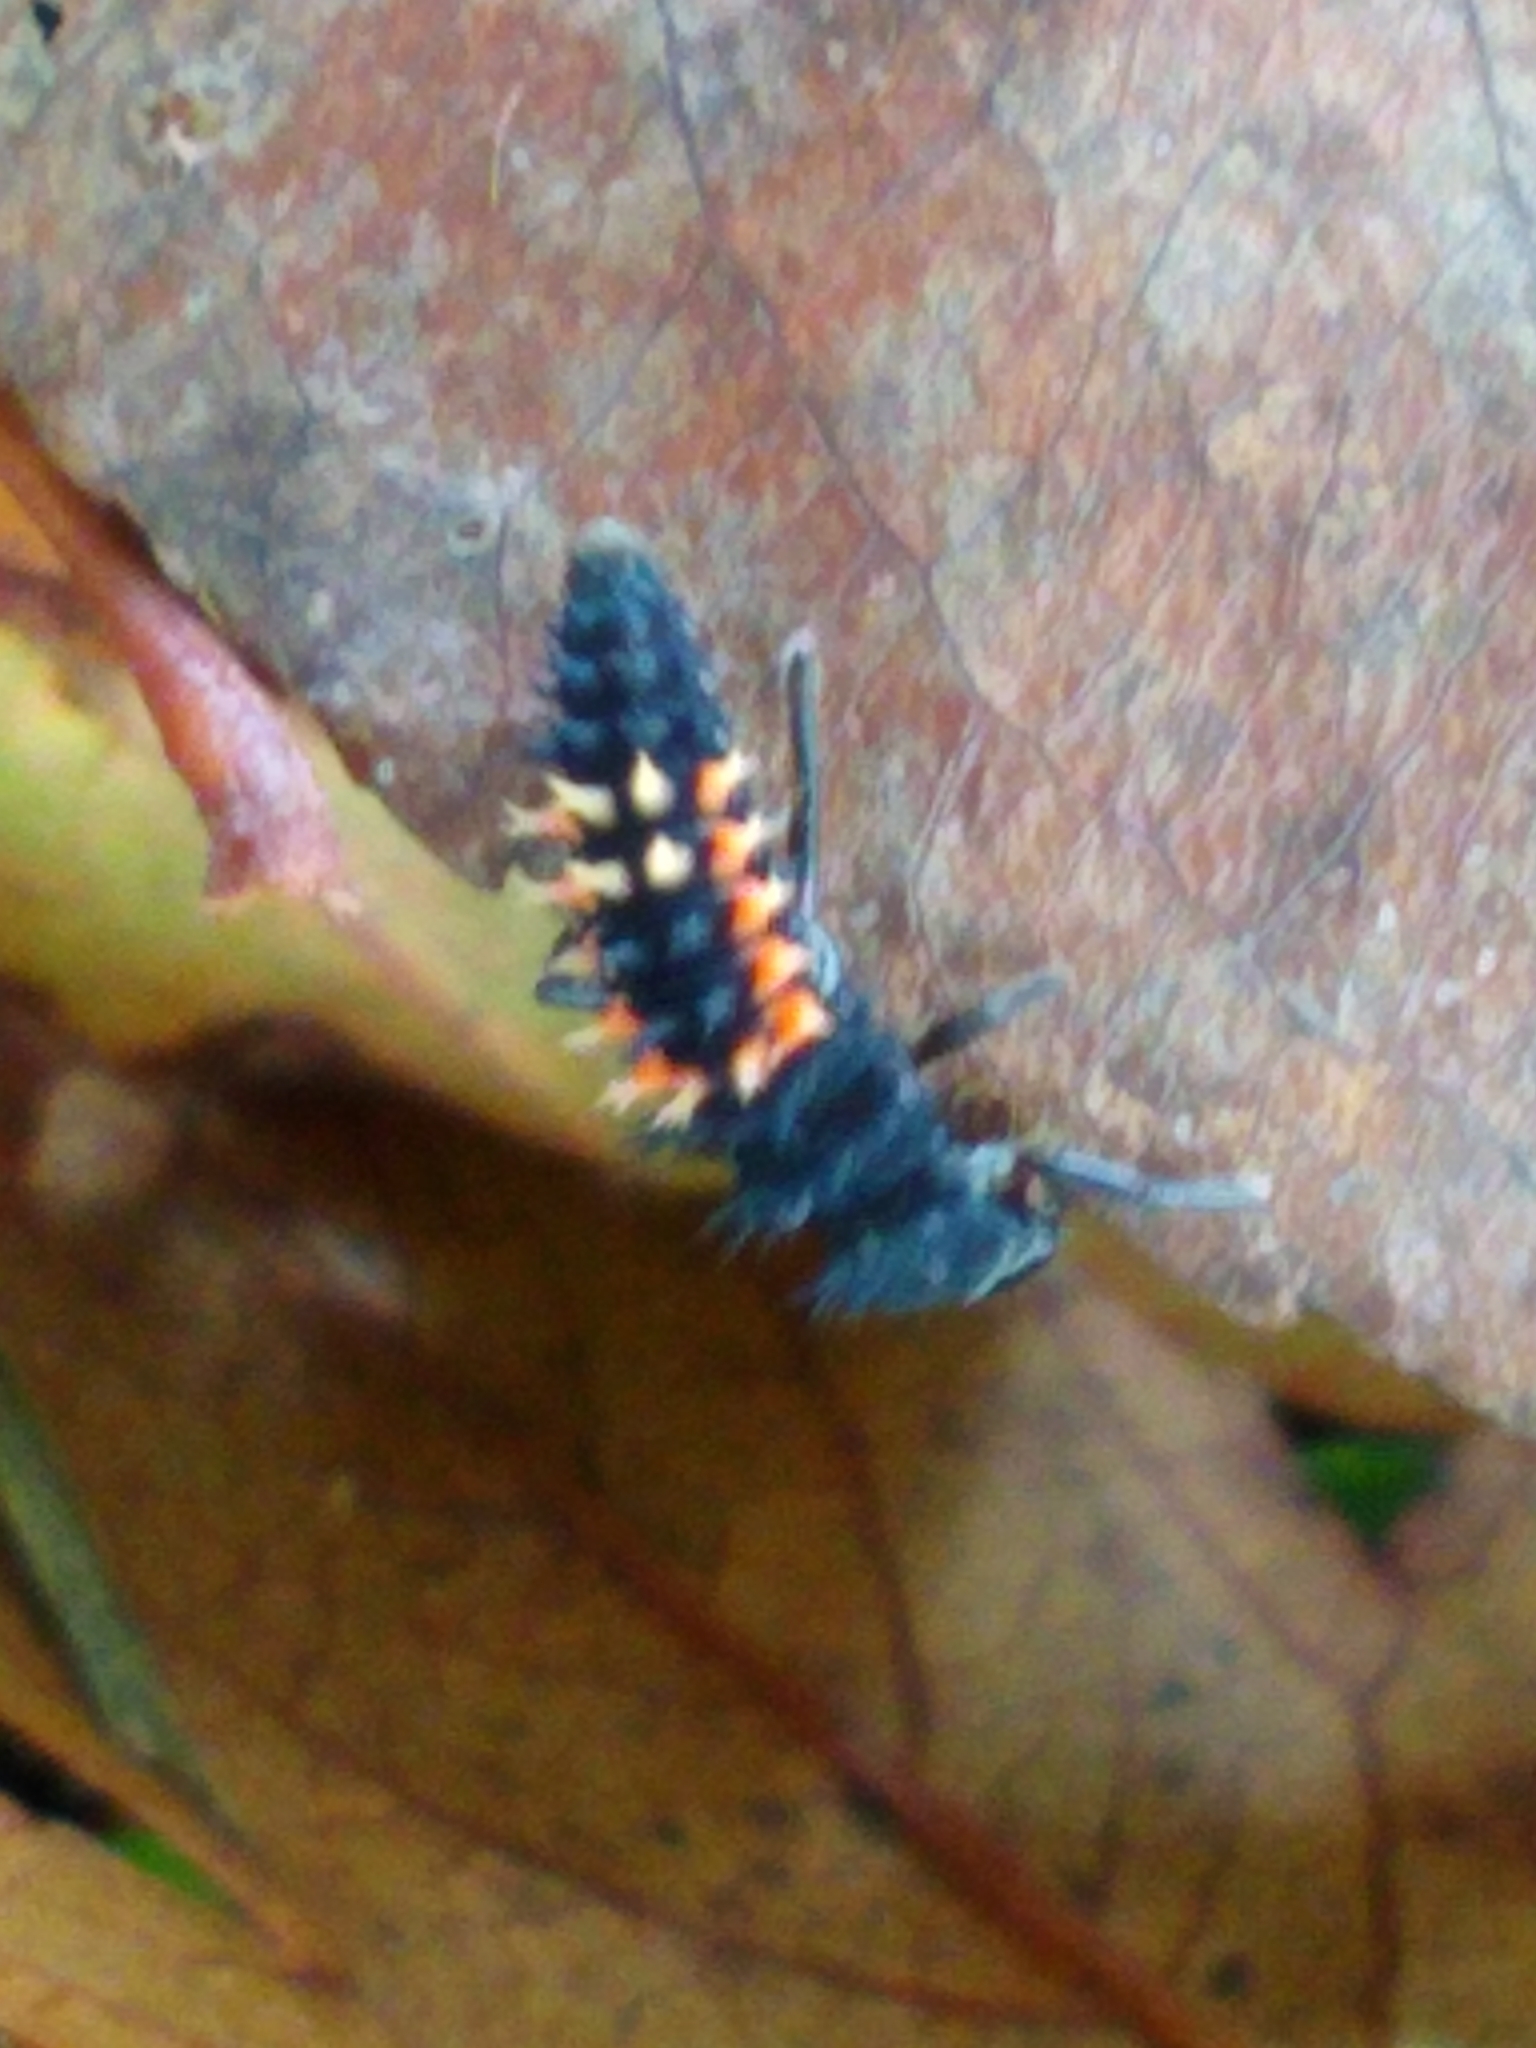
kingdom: Animalia
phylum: Arthropoda
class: Insecta
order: Coleoptera
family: Coccinellidae
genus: Harmonia
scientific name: Harmonia axyridis
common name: Harlequin ladybird
